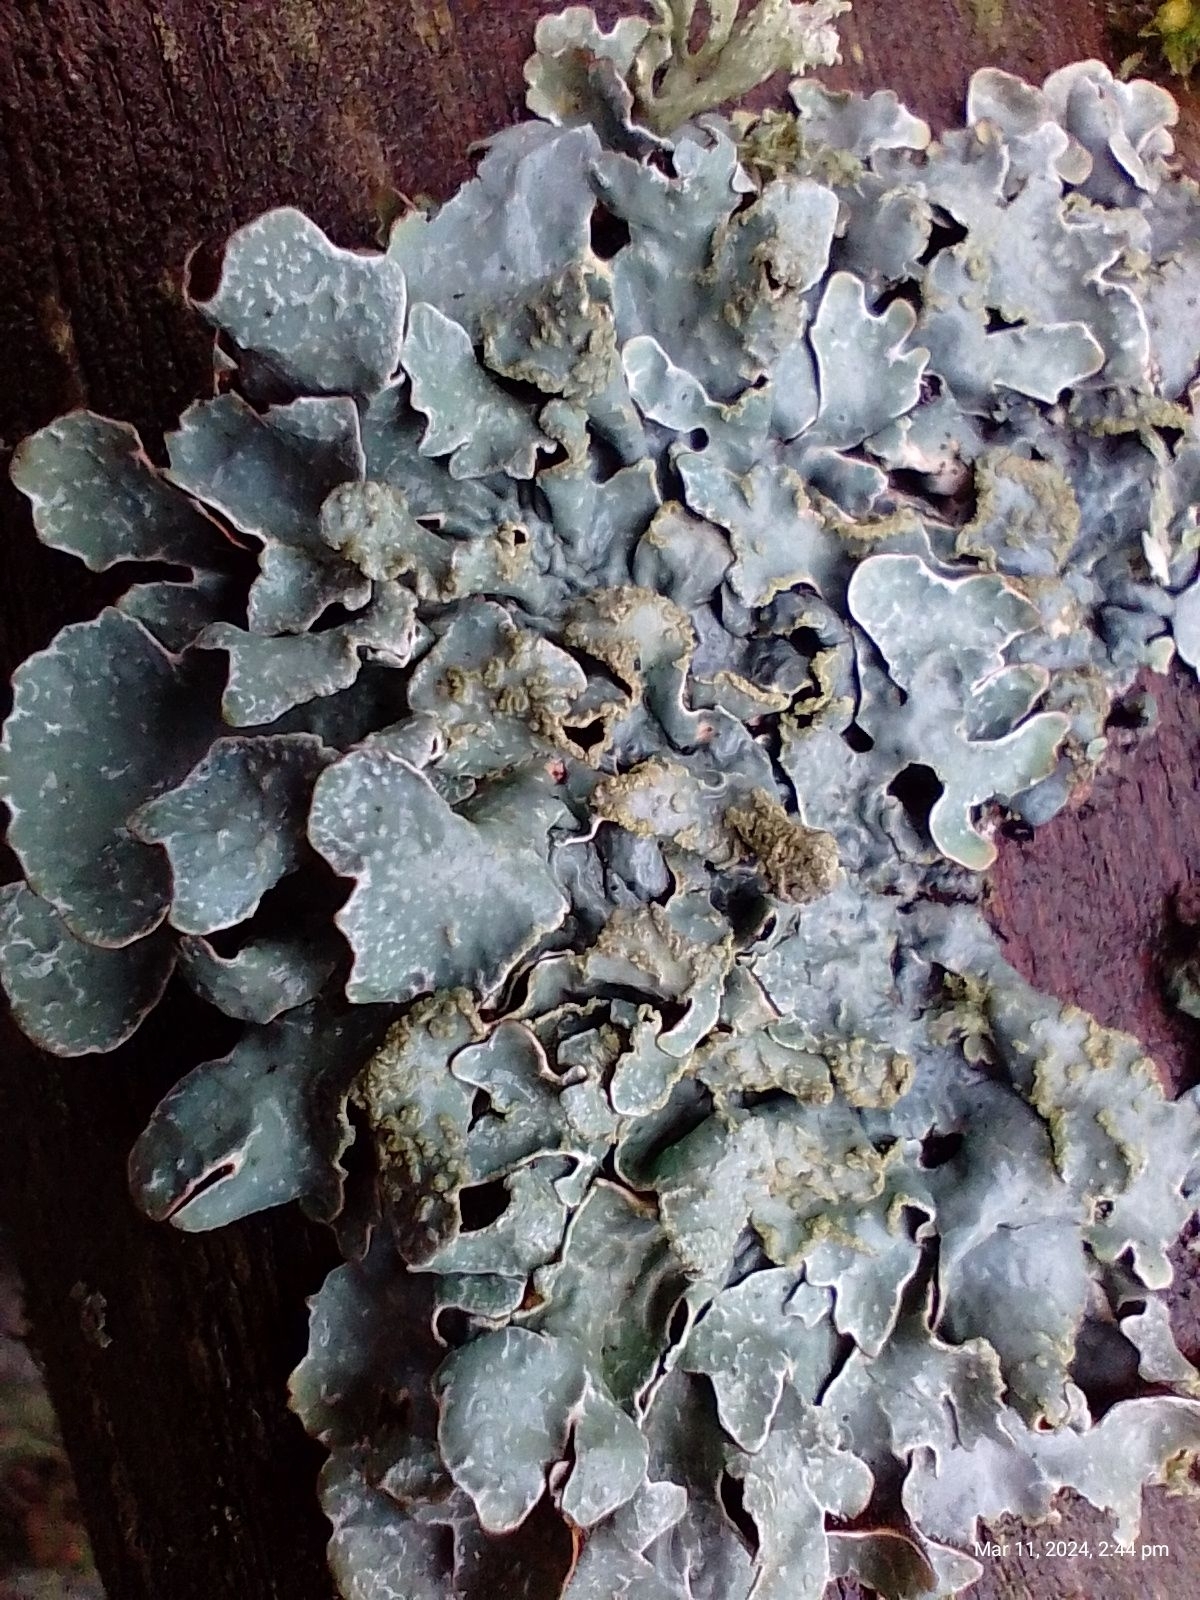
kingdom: Fungi
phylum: Ascomycota
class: Lecanoromycetes
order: Lecanorales
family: Parmeliaceae
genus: Parmelia
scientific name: Parmelia sulcata
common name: Netted shield lichen
